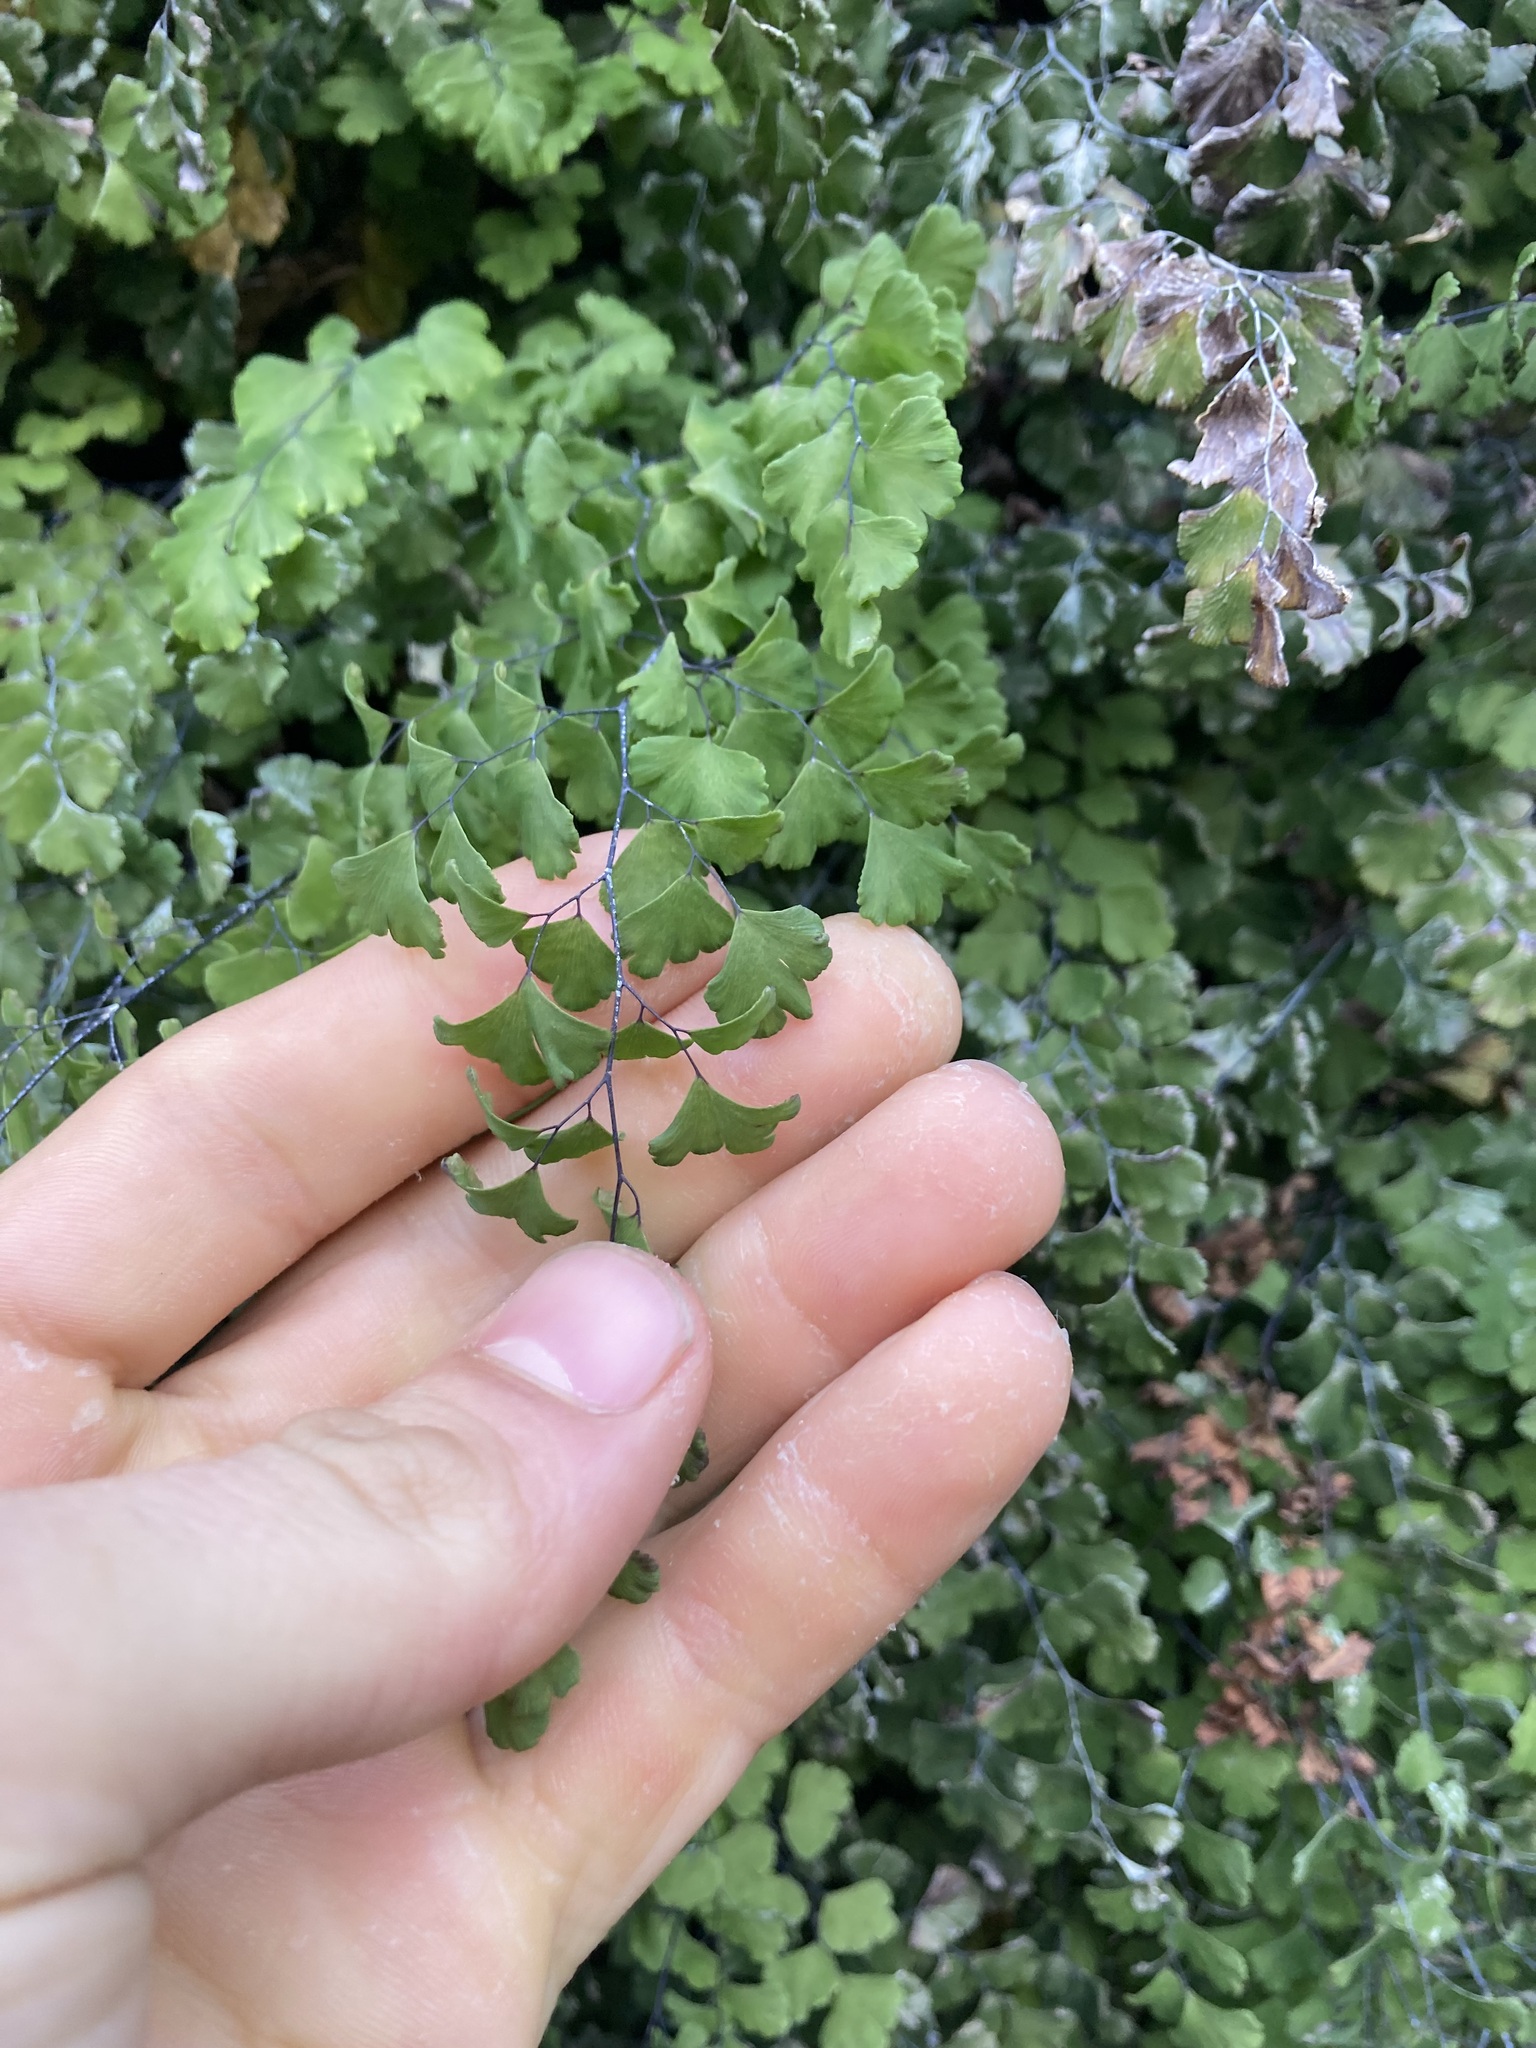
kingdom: Plantae
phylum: Tracheophyta
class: Polypodiopsida
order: Polypodiales
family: Pteridaceae
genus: Adiantum
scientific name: Adiantum capillus-veneris
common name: Maidenhair fern
